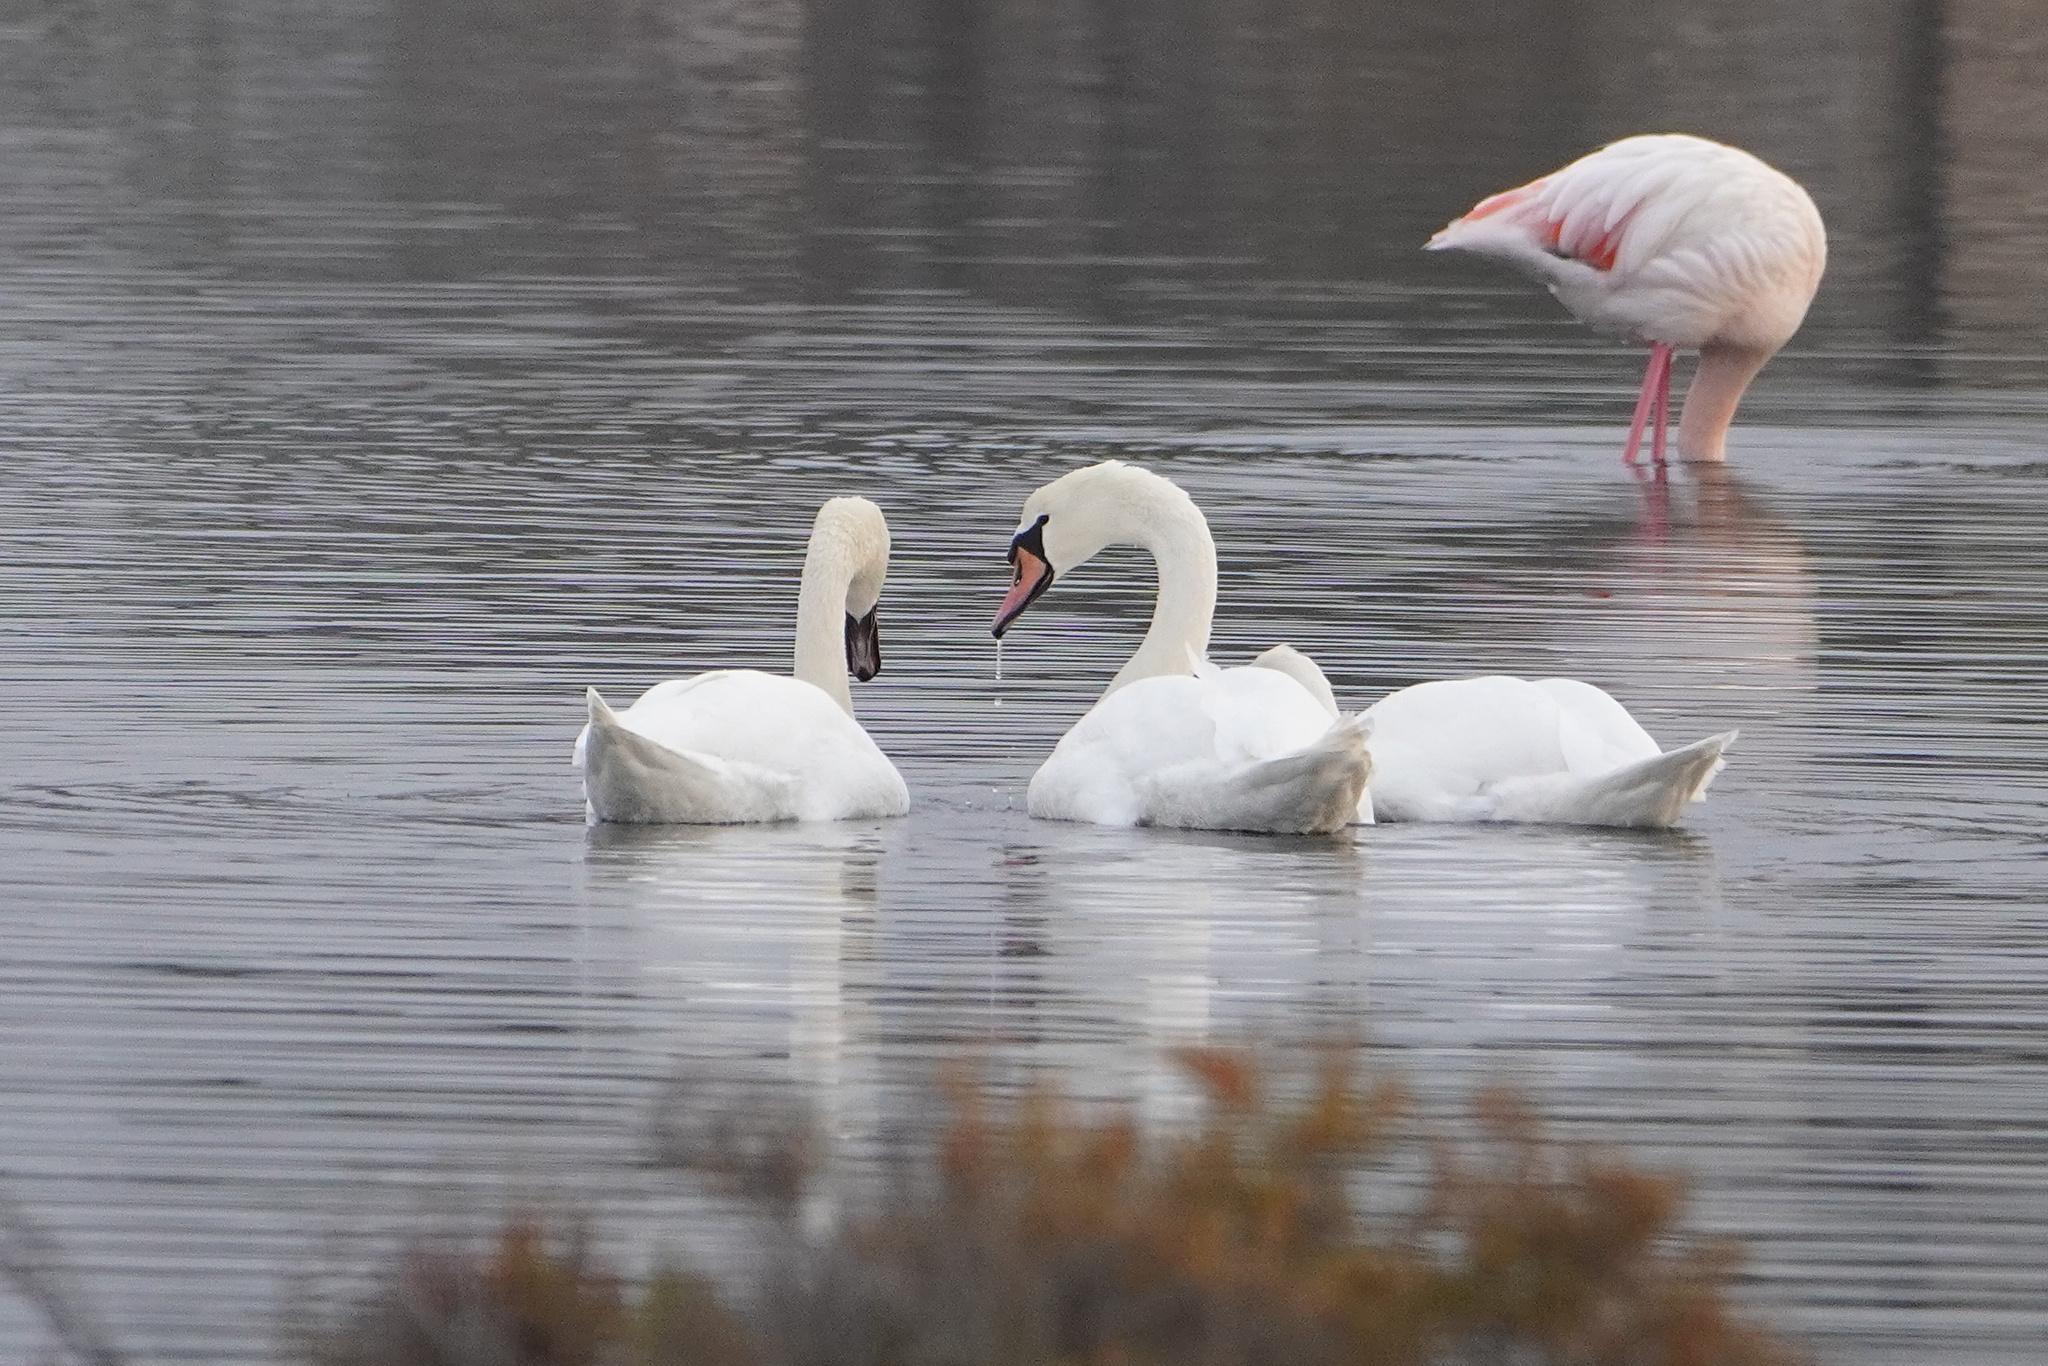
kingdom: Animalia
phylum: Chordata
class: Aves
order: Anseriformes
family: Anatidae
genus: Cygnus
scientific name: Cygnus olor
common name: Mute swan
